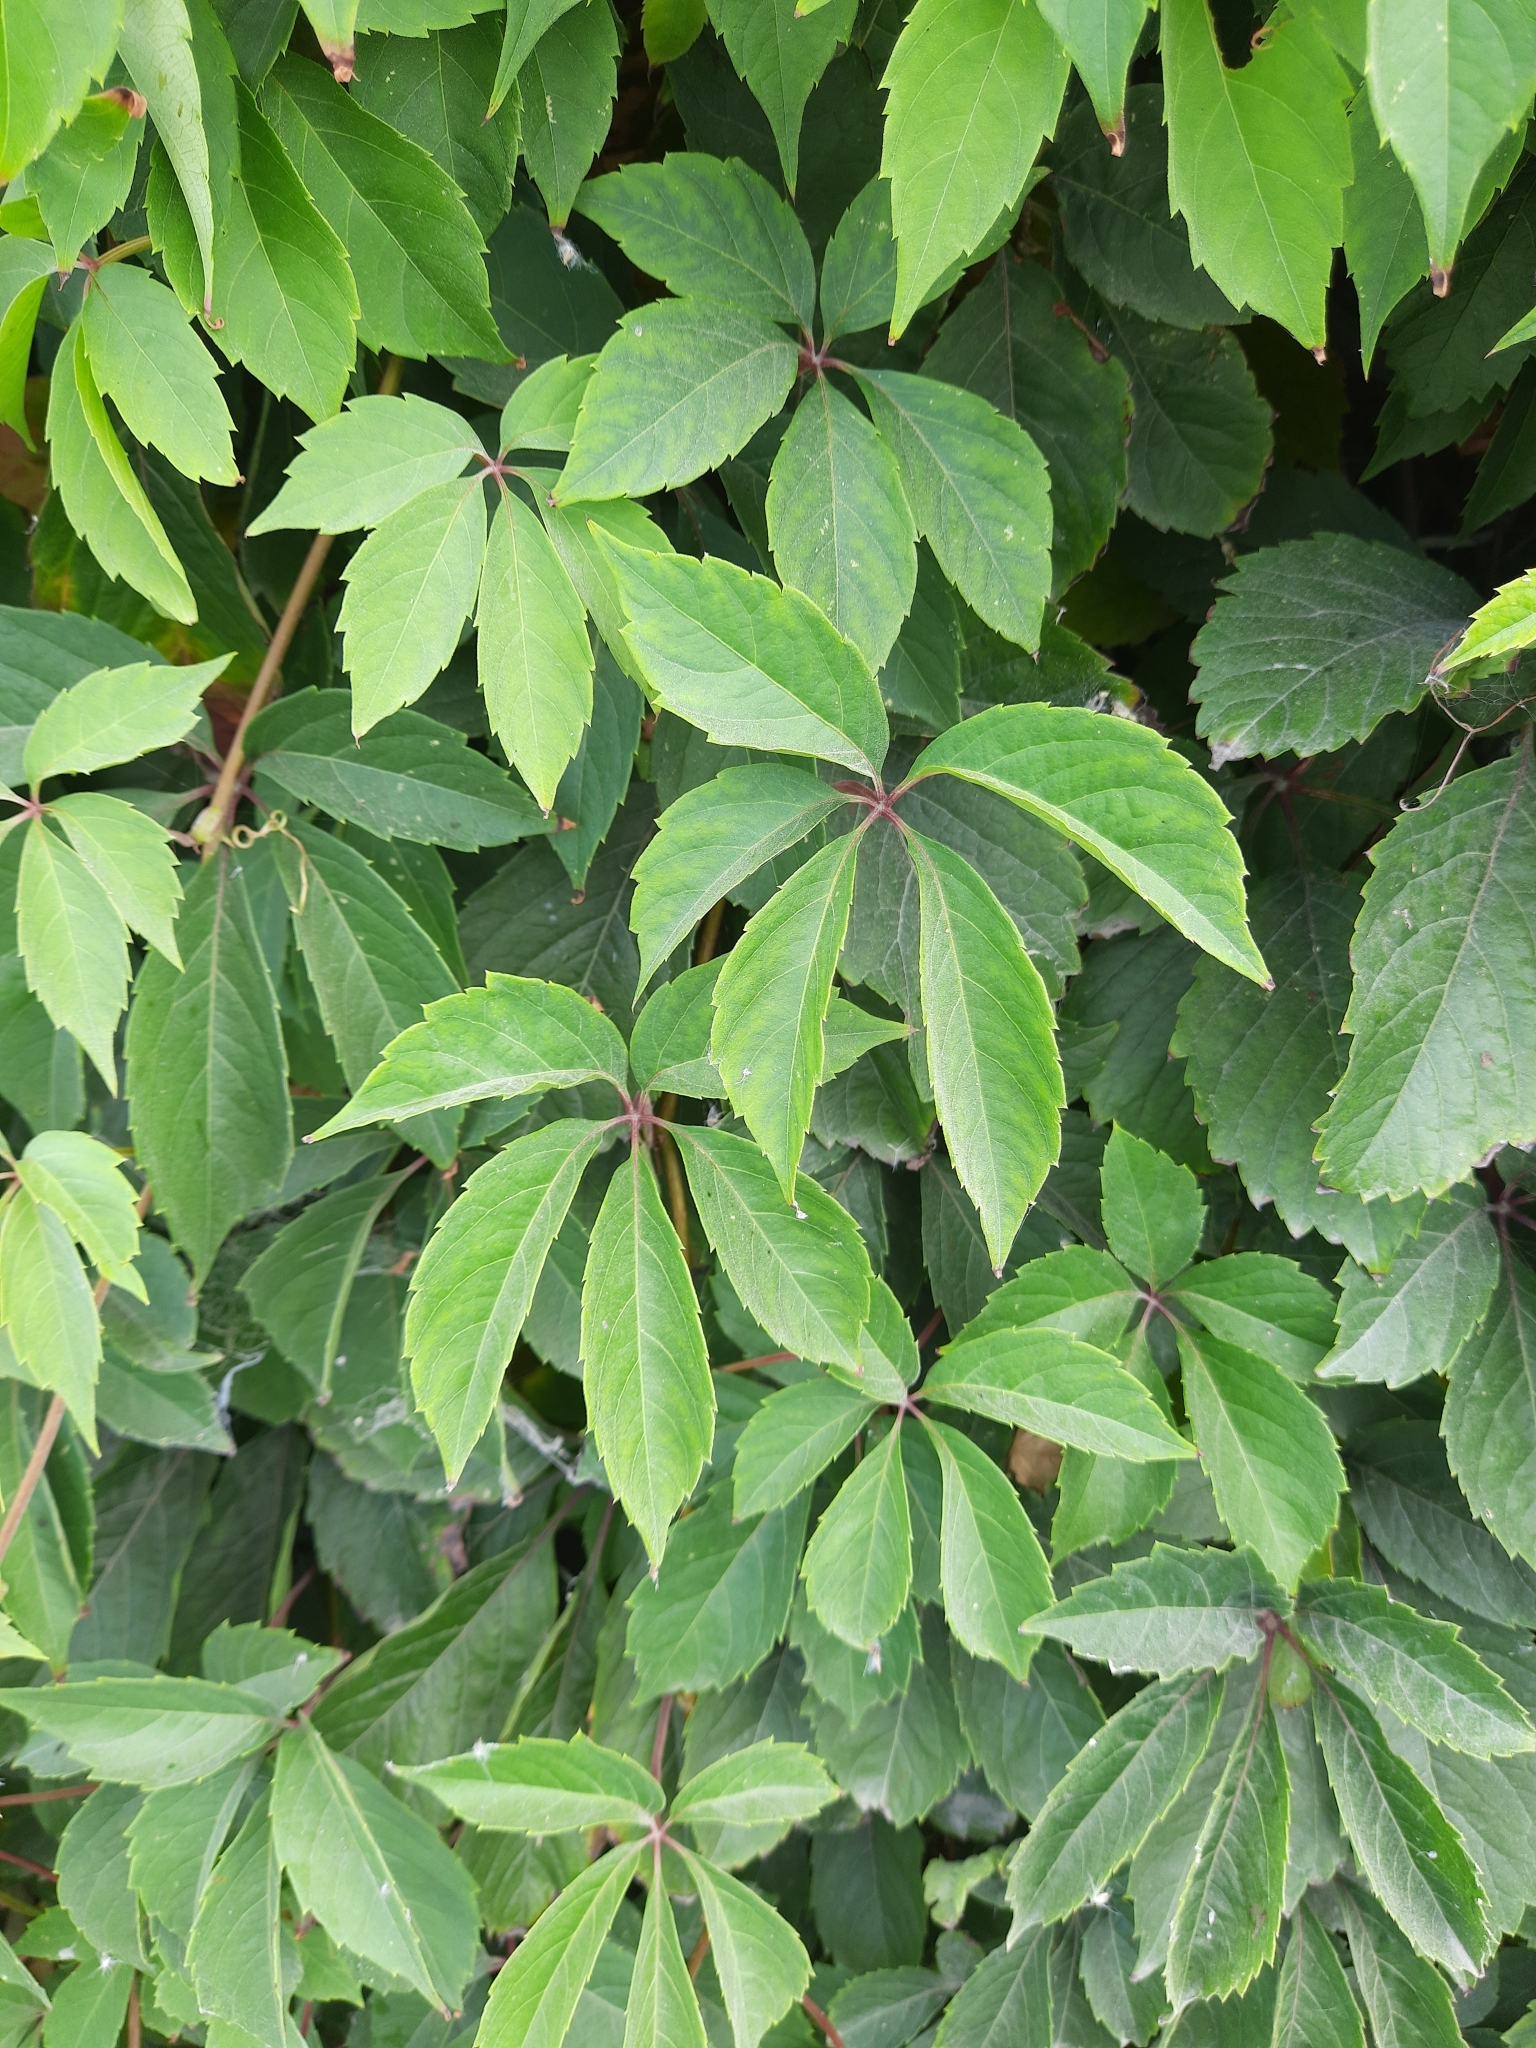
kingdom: Plantae
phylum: Tracheophyta
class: Magnoliopsida
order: Vitales
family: Vitaceae
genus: Parthenocissus
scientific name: Parthenocissus inserta
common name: False virginia-creeper
